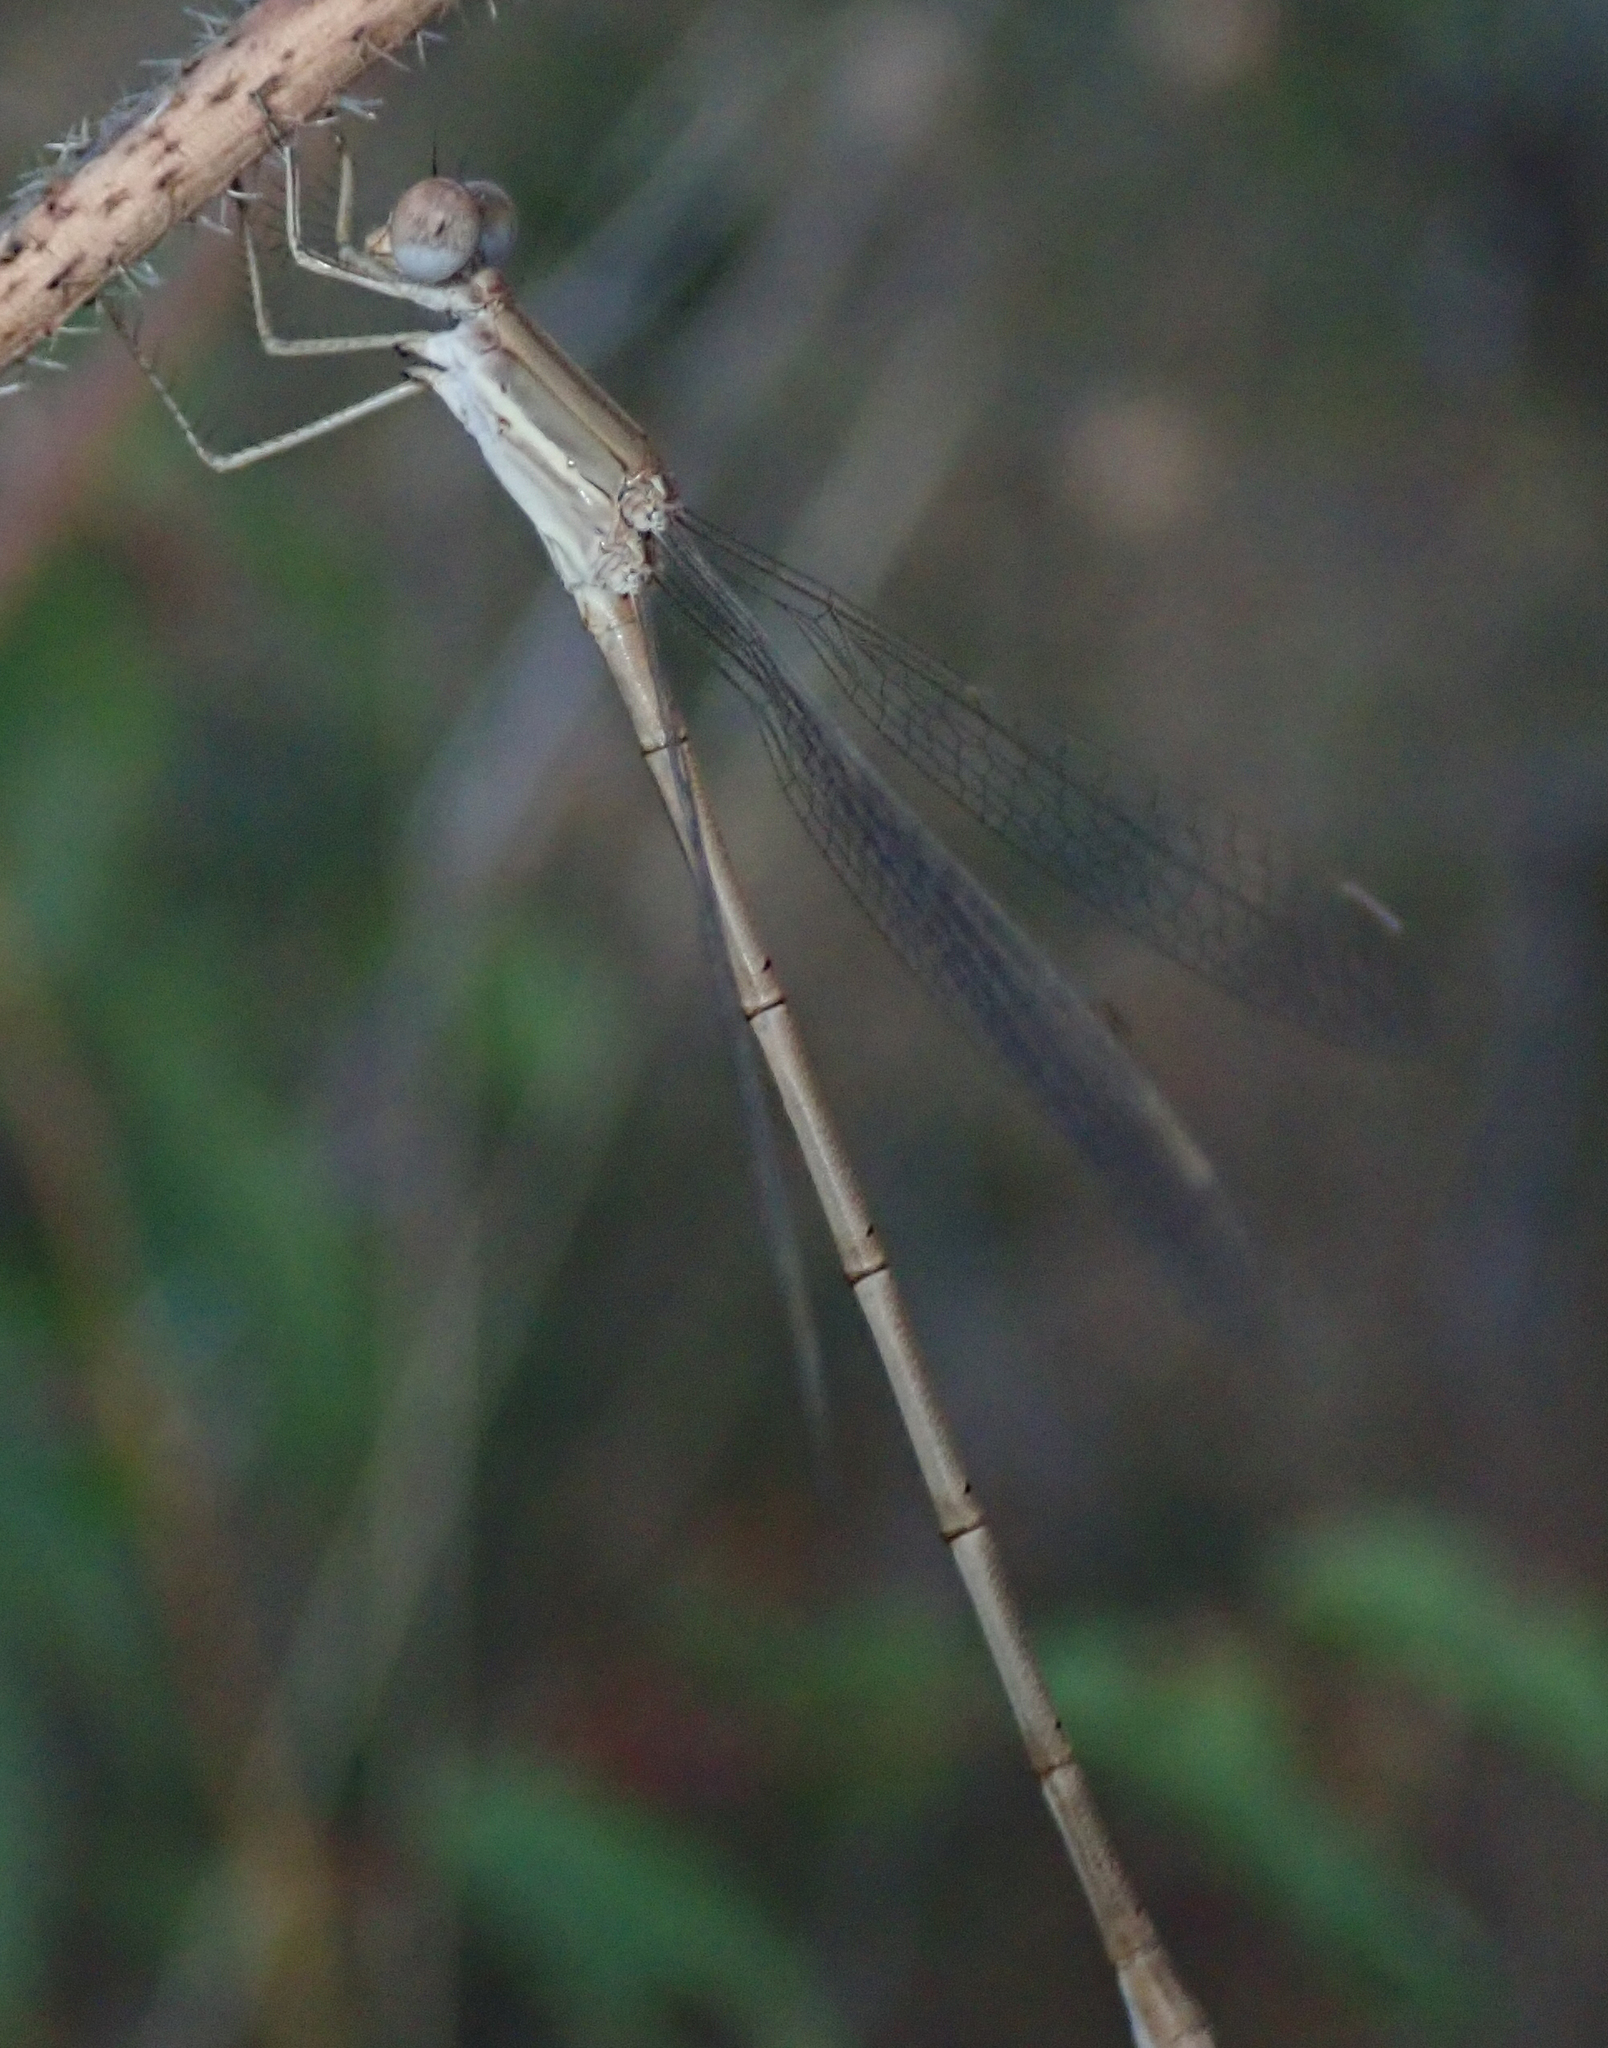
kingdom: Animalia
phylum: Arthropoda
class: Insecta
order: Odonata
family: Lestidae
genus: Lestes
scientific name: Lestes pallidus
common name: Pallid spreadwing
